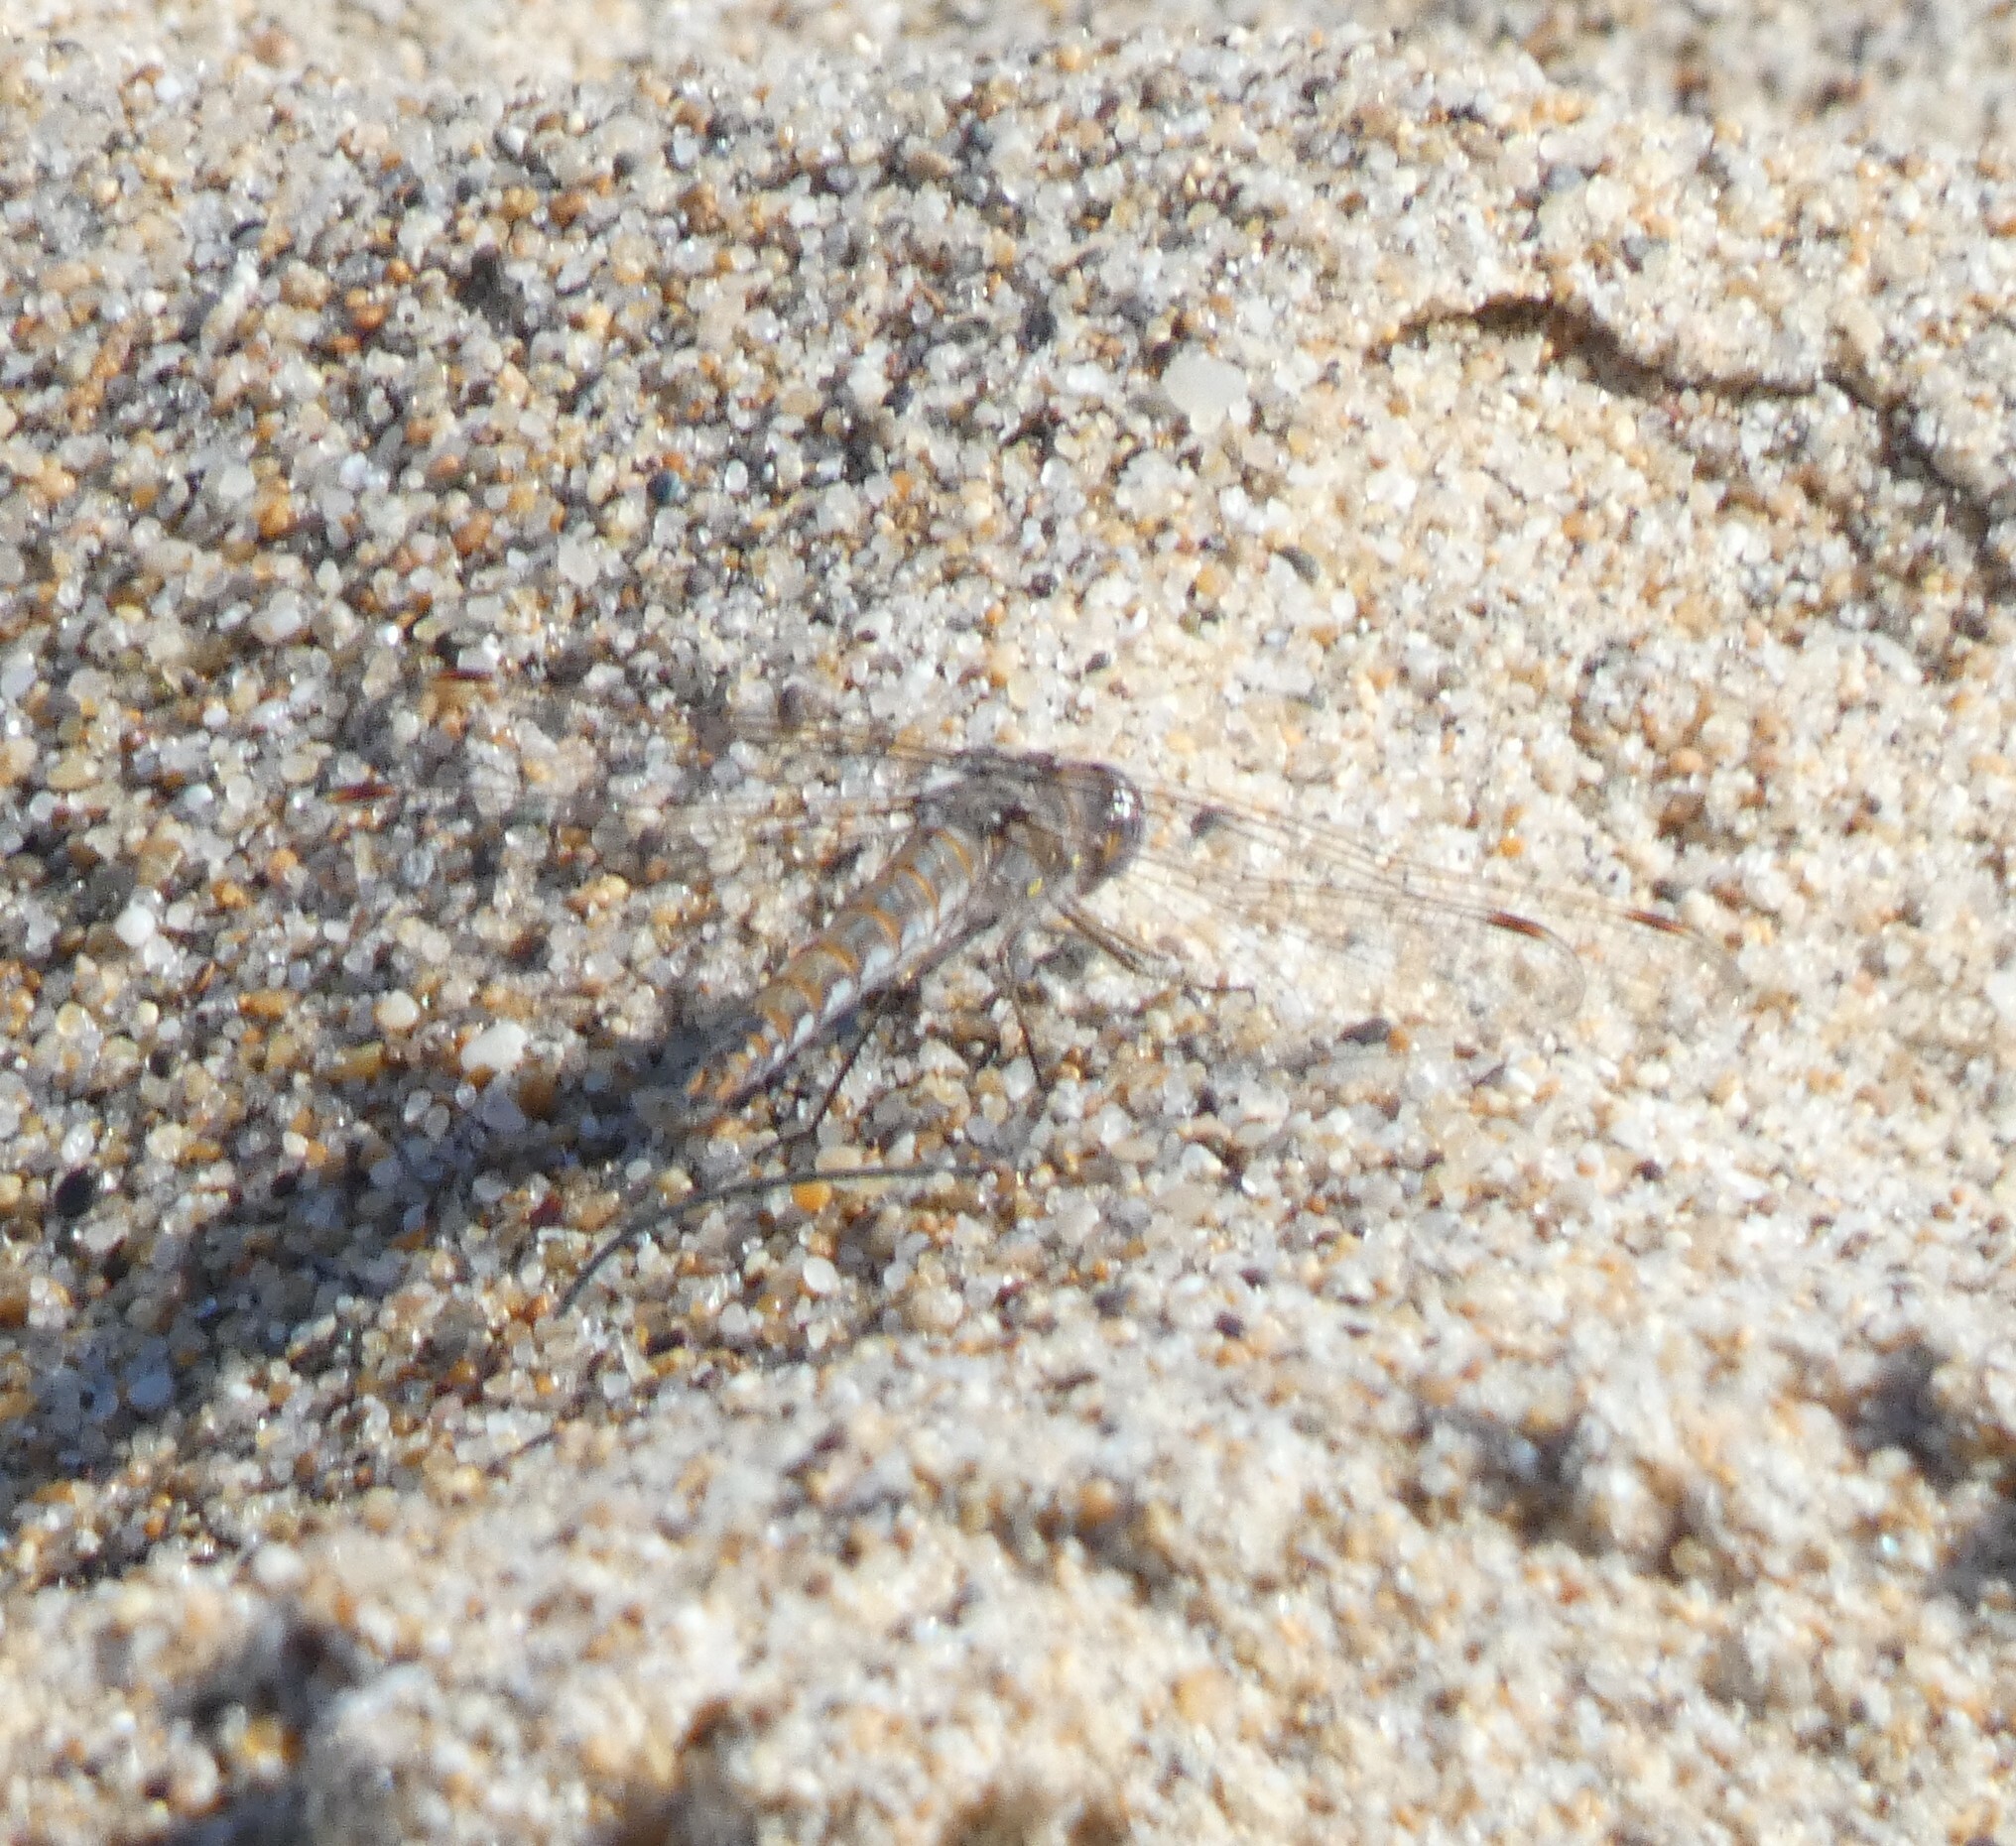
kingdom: Animalia
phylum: Arthropoda
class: Insecta
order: Odonata
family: Libellulidae
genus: Sympetrum
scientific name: Sympetrum corruptum
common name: Variegated meadowhawk
